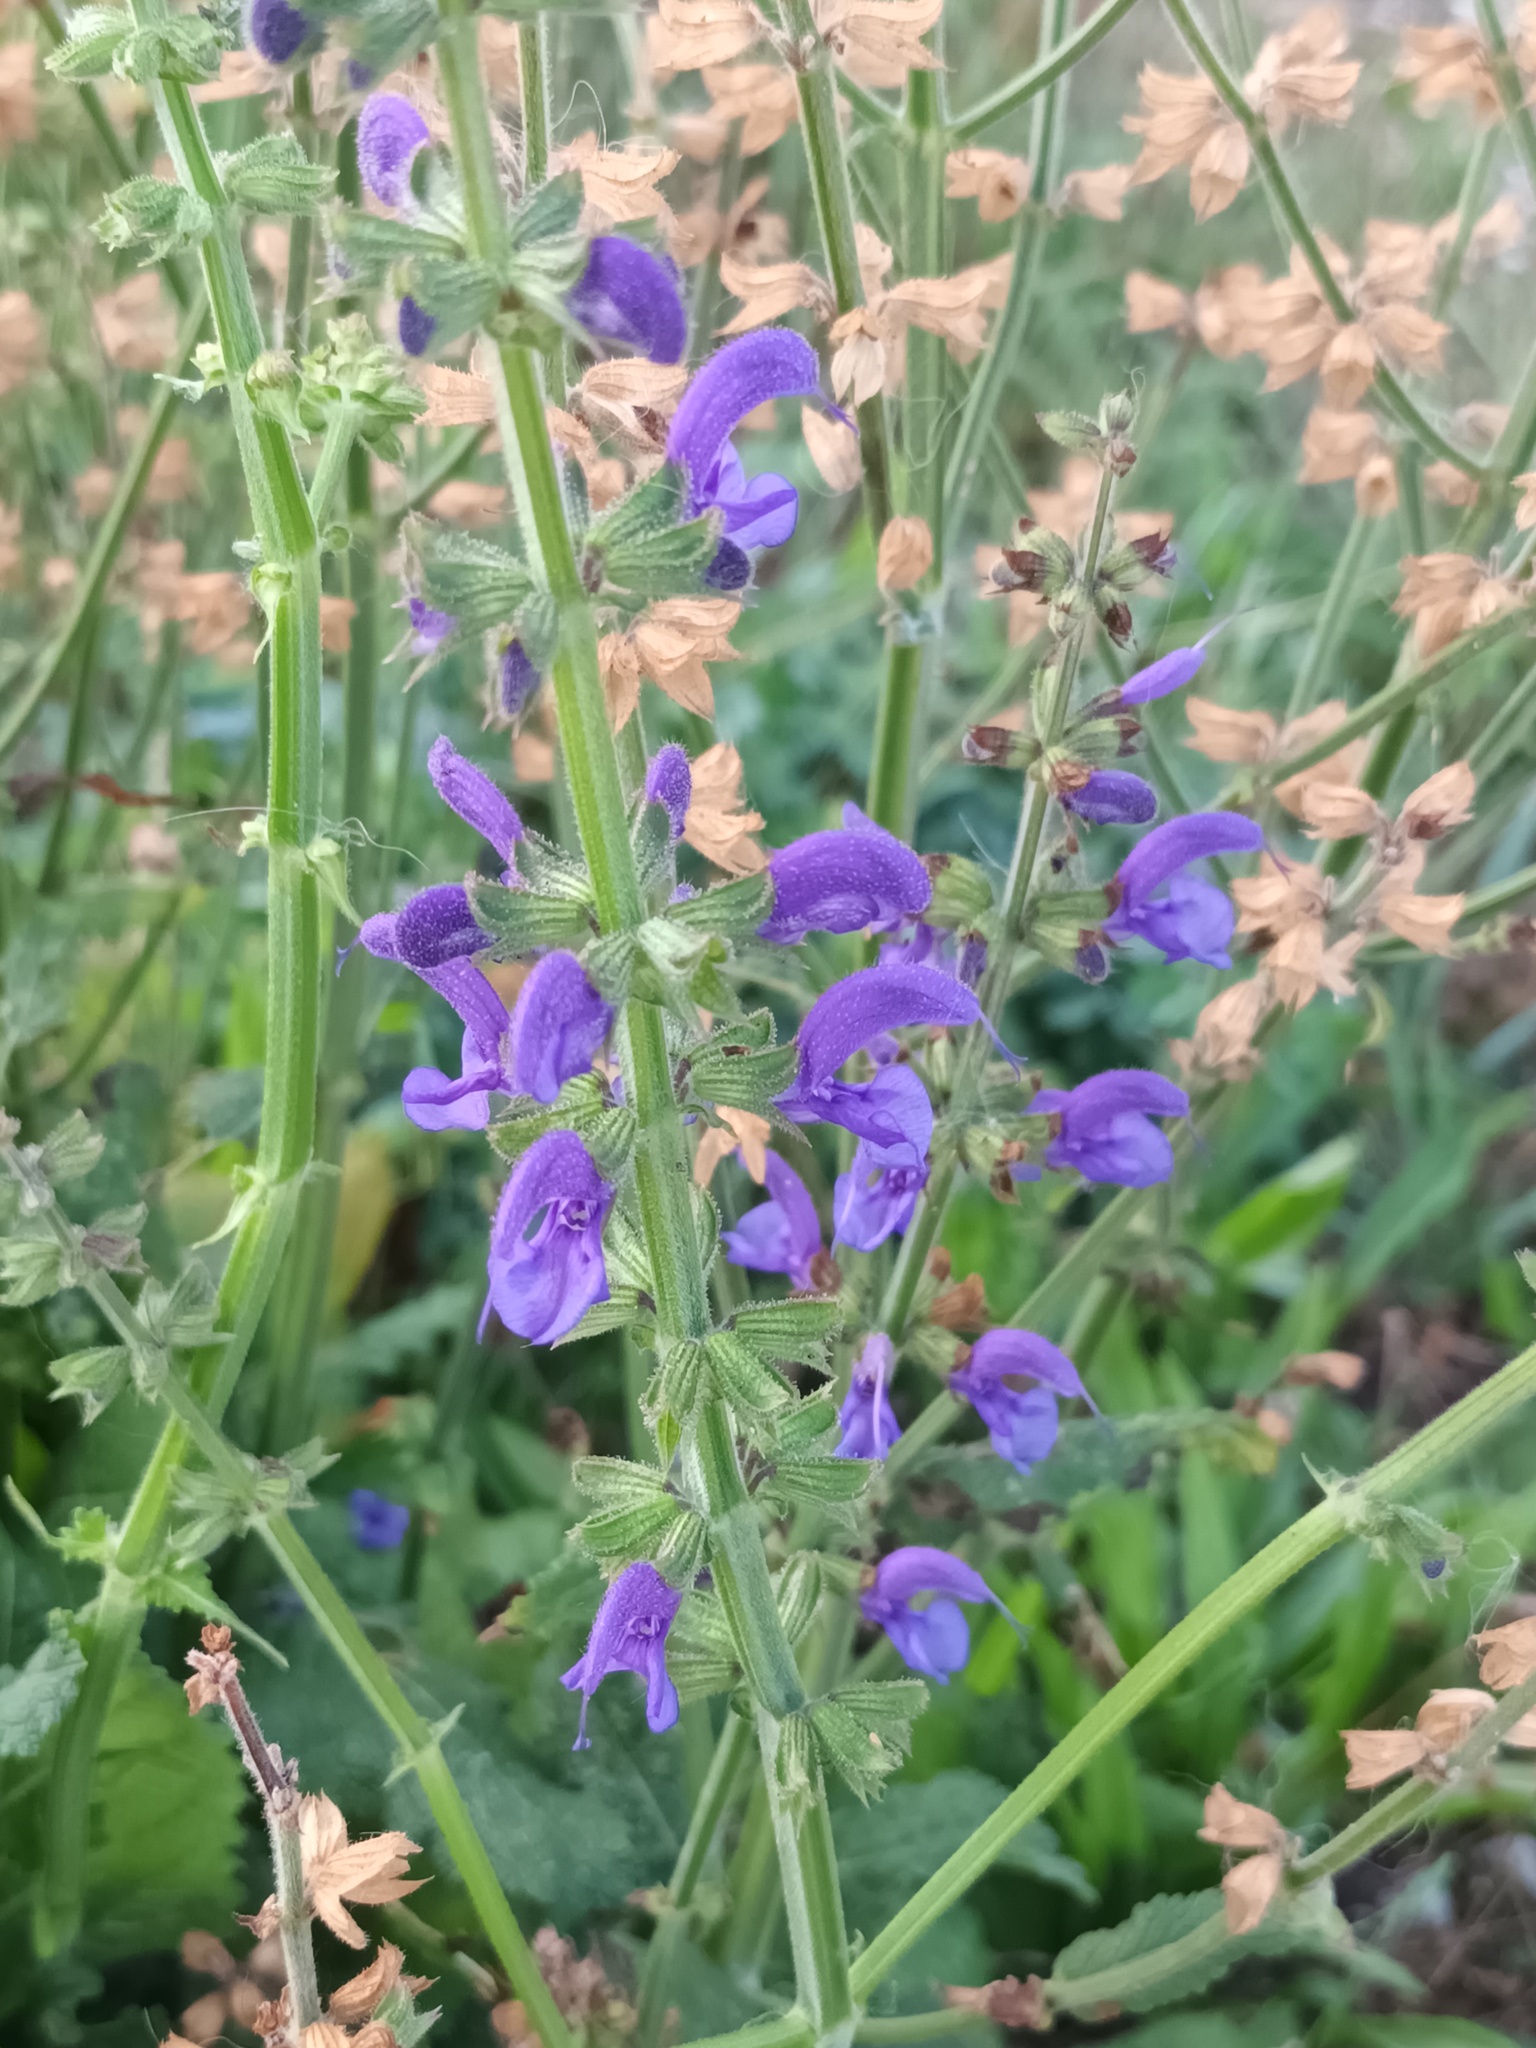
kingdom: Plantae
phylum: Tracheophyta
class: Magnoliopsida
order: Lamiales
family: Lamiaceae
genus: Salvia
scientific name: Salvia pratensis
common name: Meadow sage
